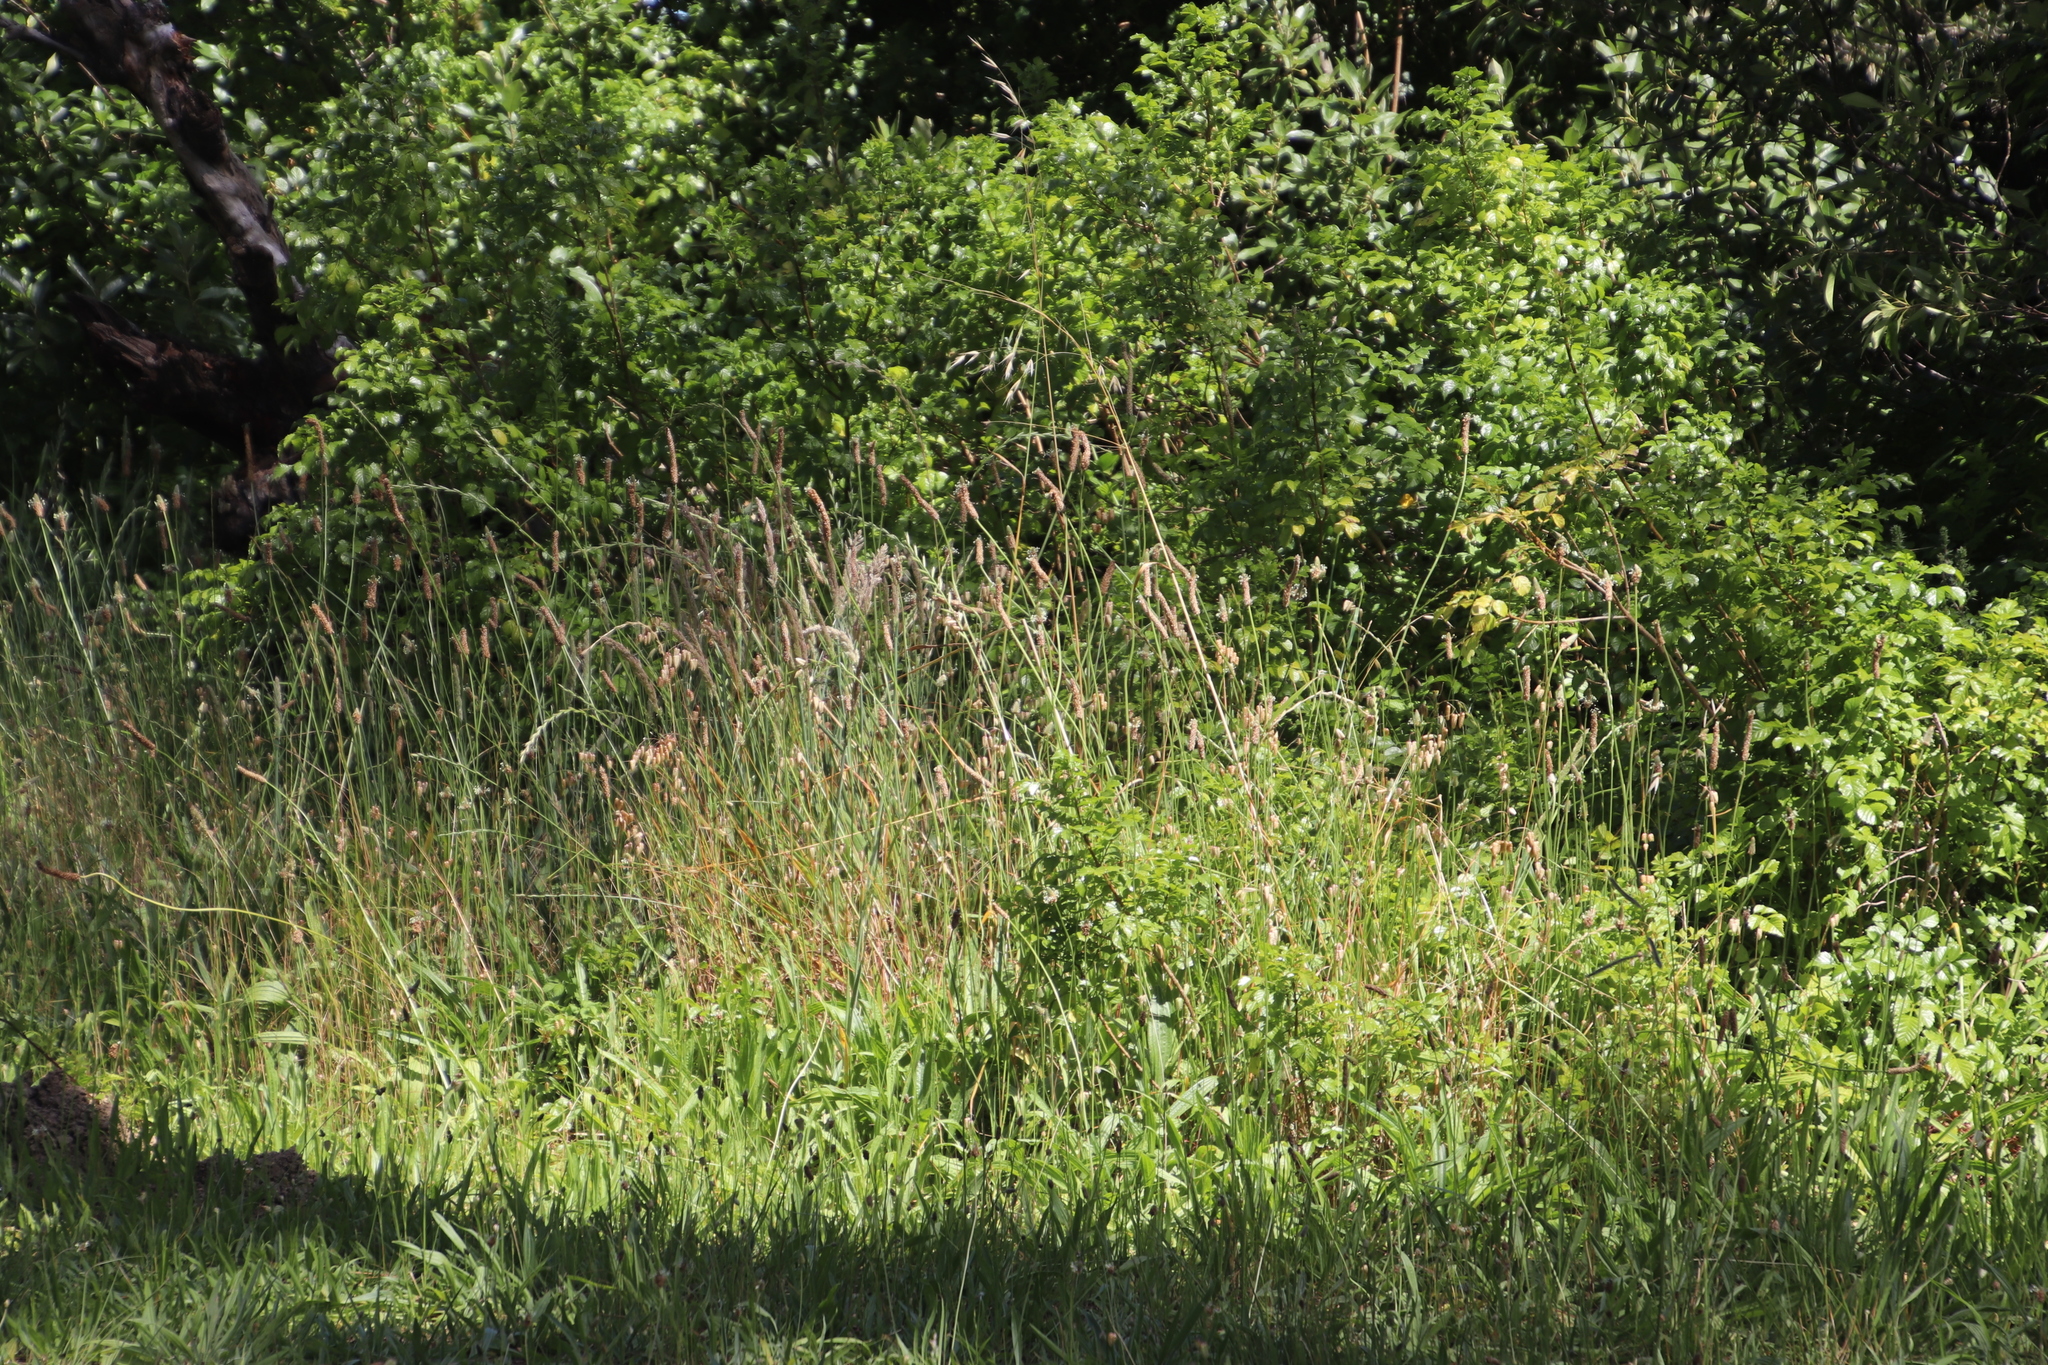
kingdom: Plantae
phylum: Tracheophyta
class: Liliopsida
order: Poales
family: Poaceae
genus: Briza
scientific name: Briza maxima
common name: Big quakinggrass
